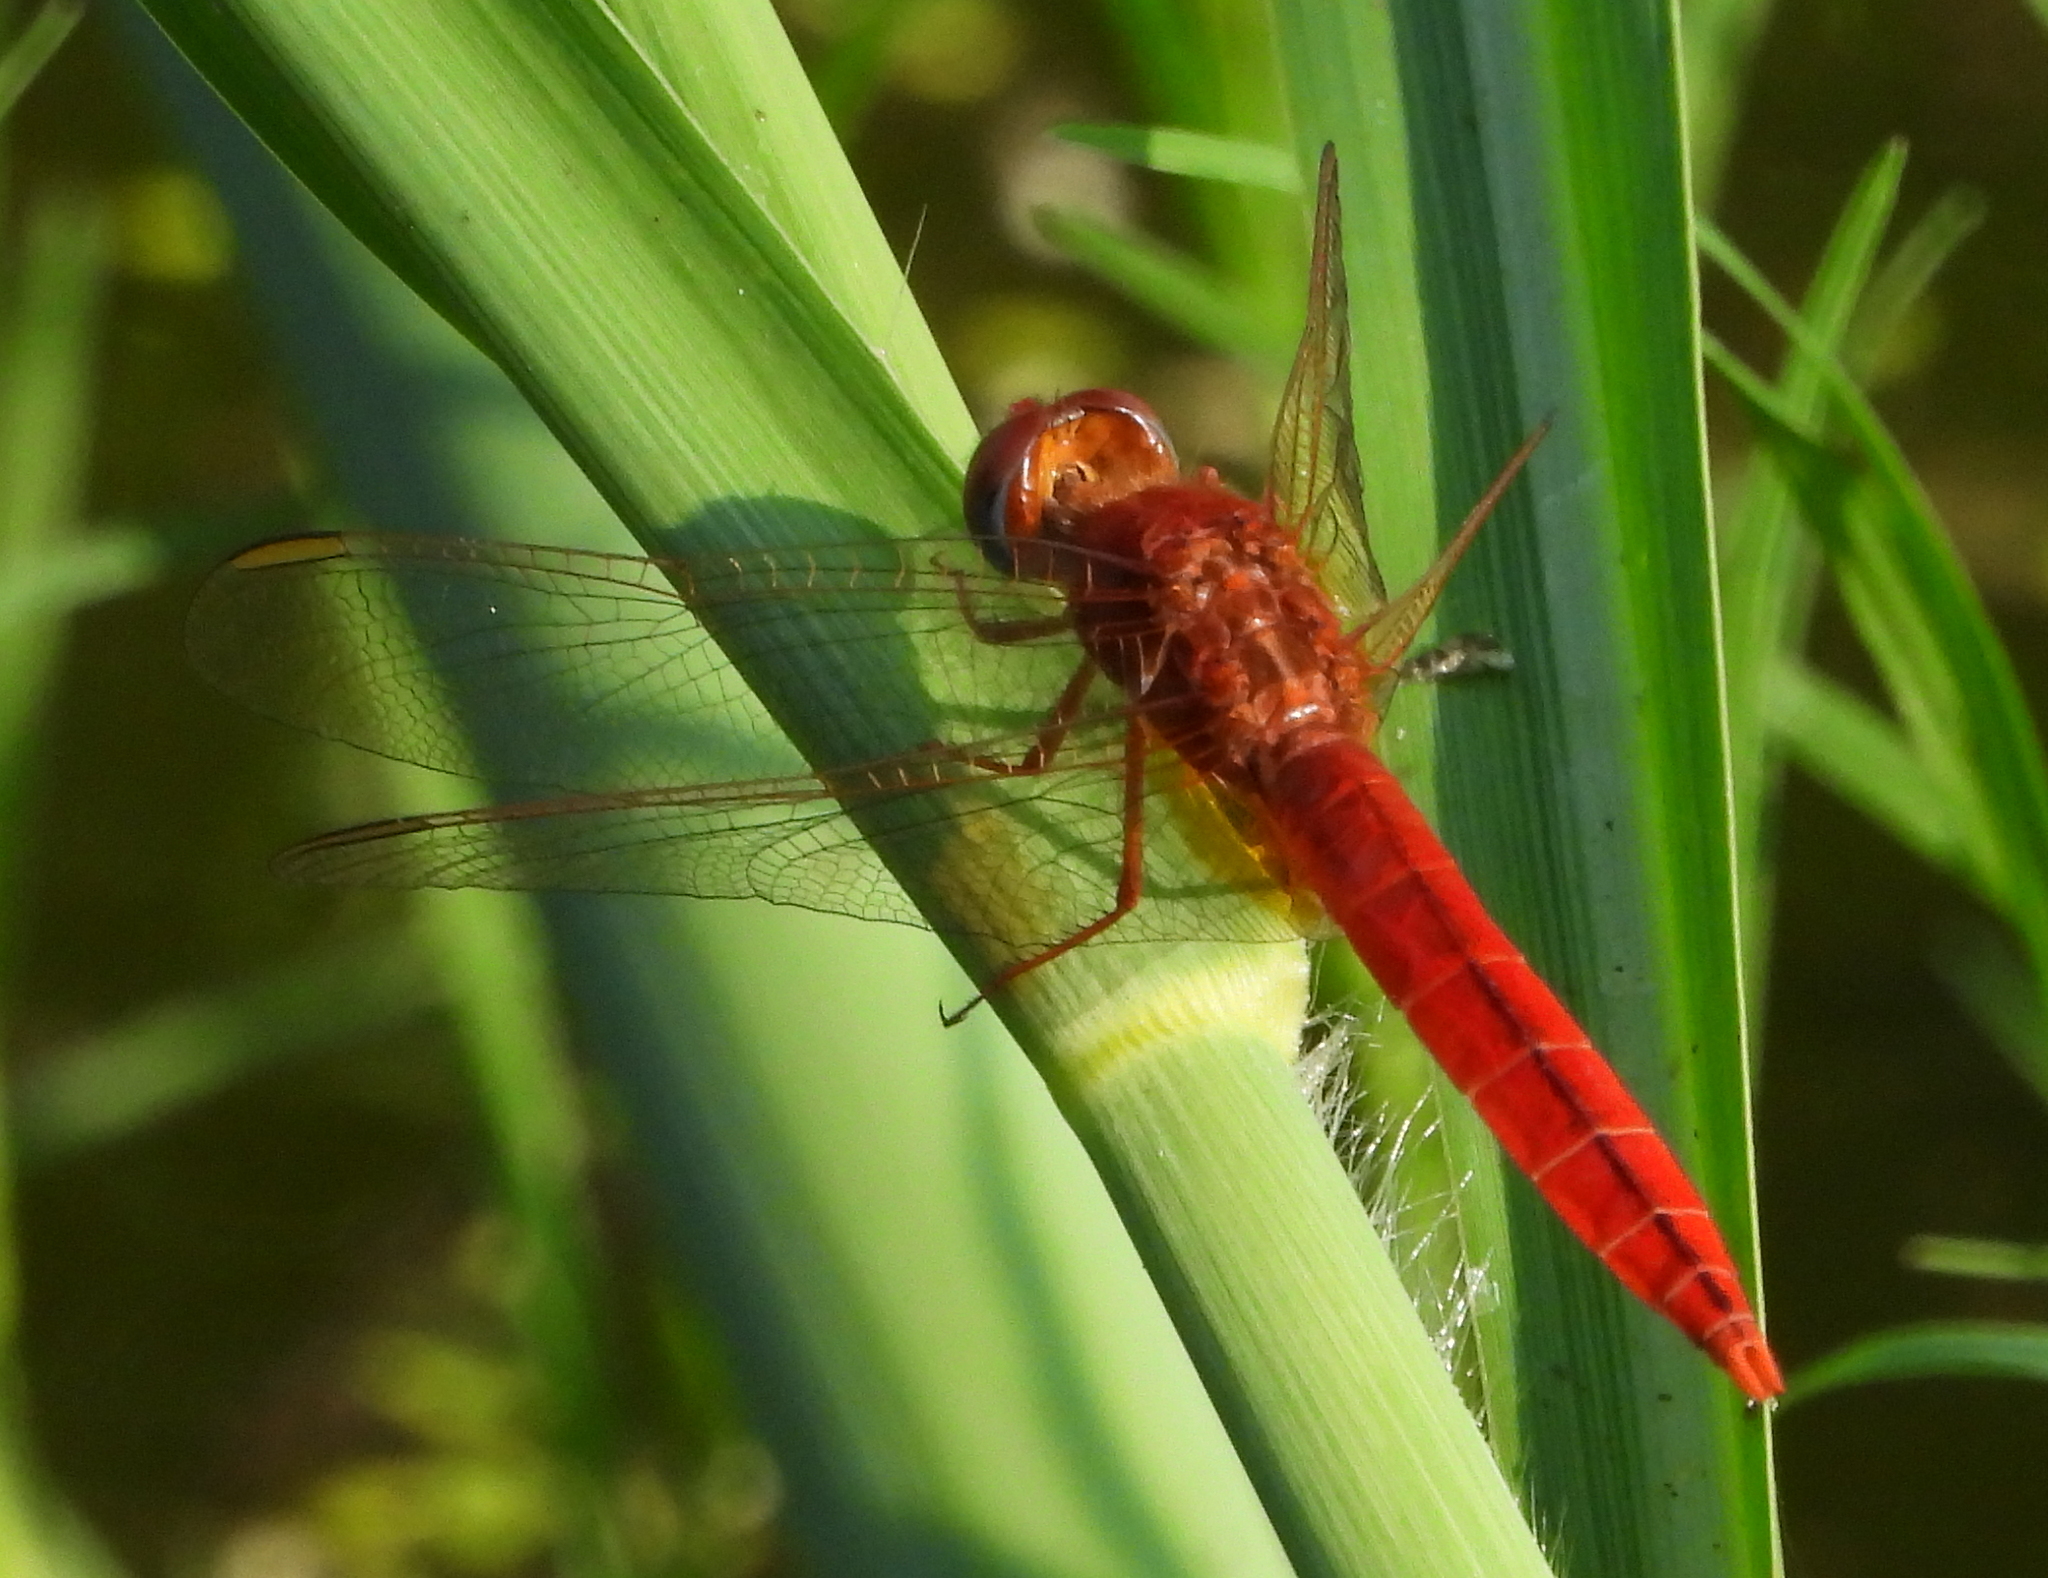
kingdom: Animalia
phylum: Arthropoda
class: Insecta
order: Odonata
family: Libellulidae
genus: Crocothemis
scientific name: Crocothemis erythraea
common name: Scarlet dragonfly
